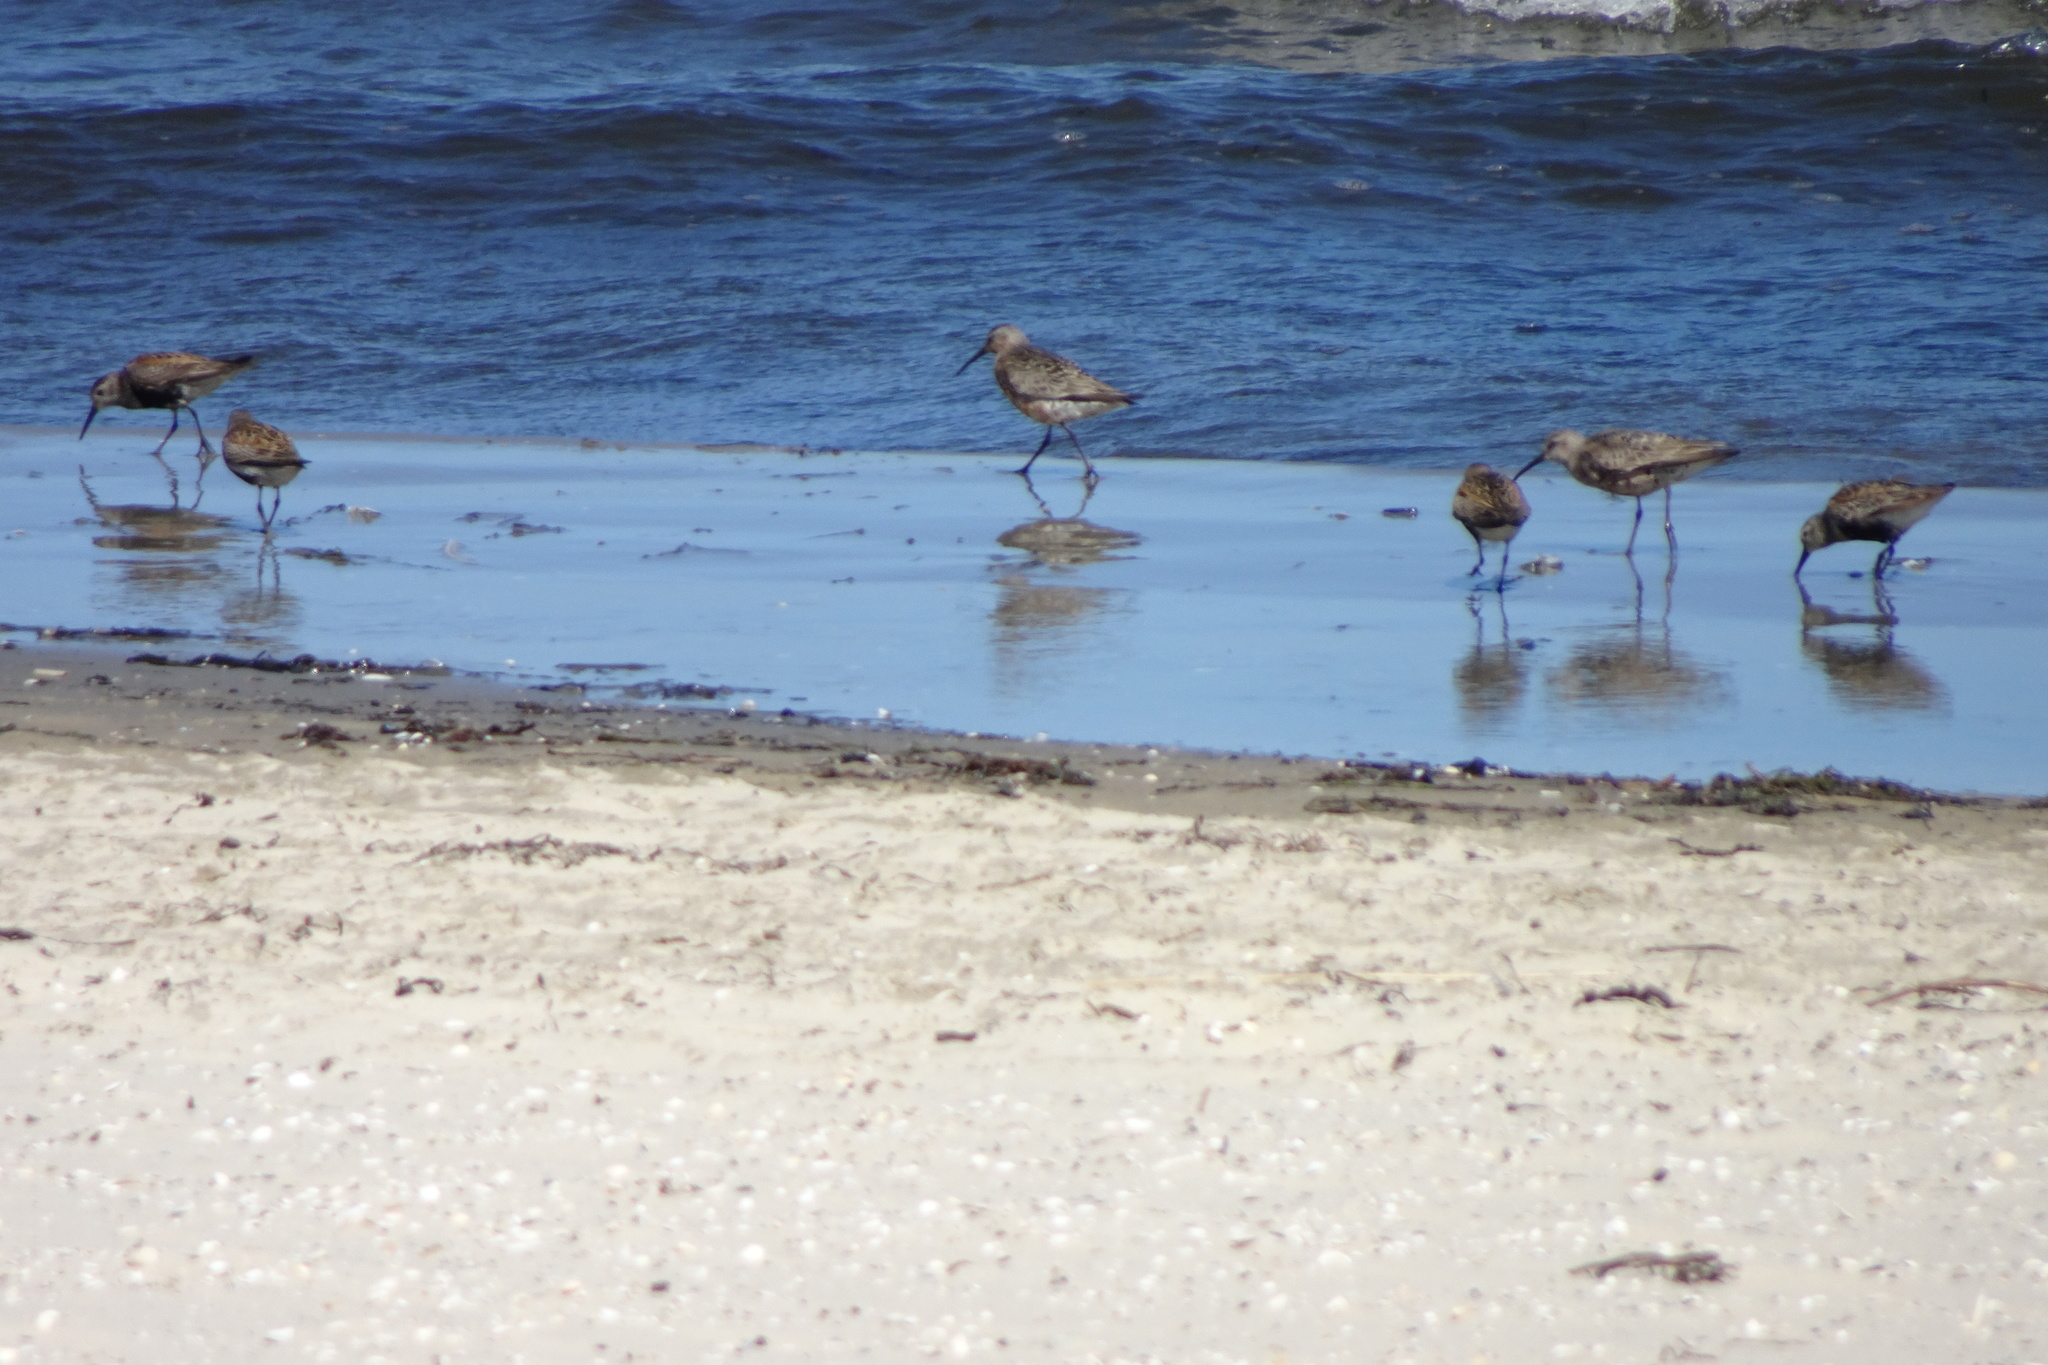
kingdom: Animalia
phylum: Chordata
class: Aves
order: Charadriiformes
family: Scolopacidae
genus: Calidris
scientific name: Calidris ferruginea
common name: Curlew sandpiper
